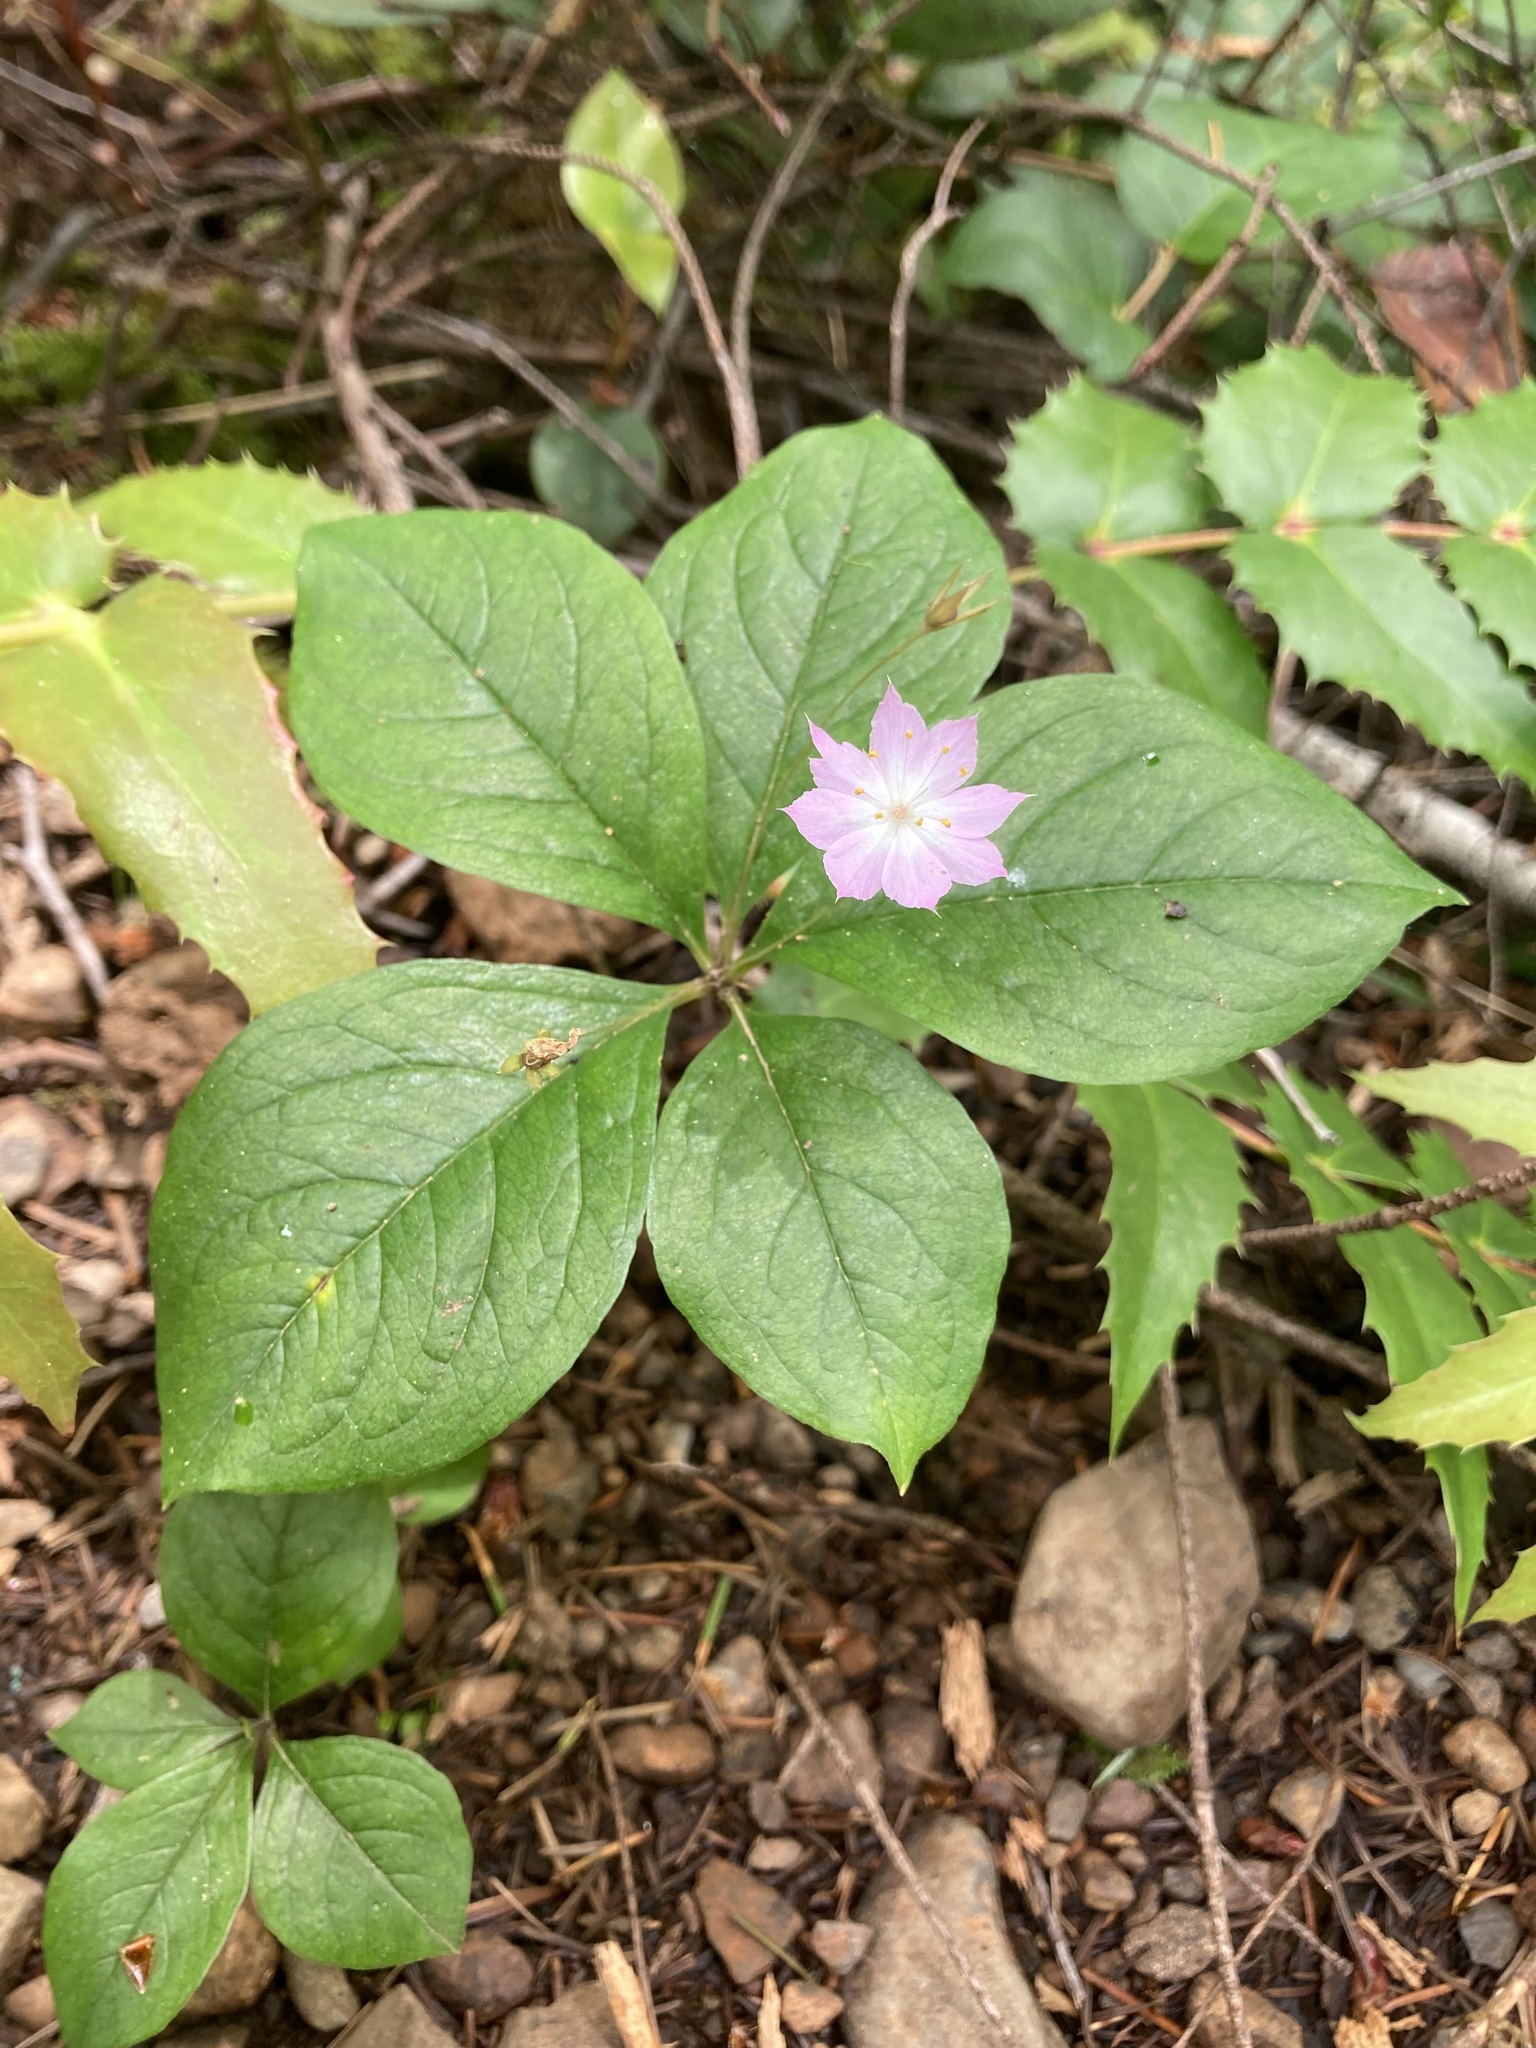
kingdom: Plantae
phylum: Tracheophyta
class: Magnoliopsida
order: Ericales
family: Primulaceae
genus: Lysimachia
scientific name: Lysimachia latifolia
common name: Pacific starflower
